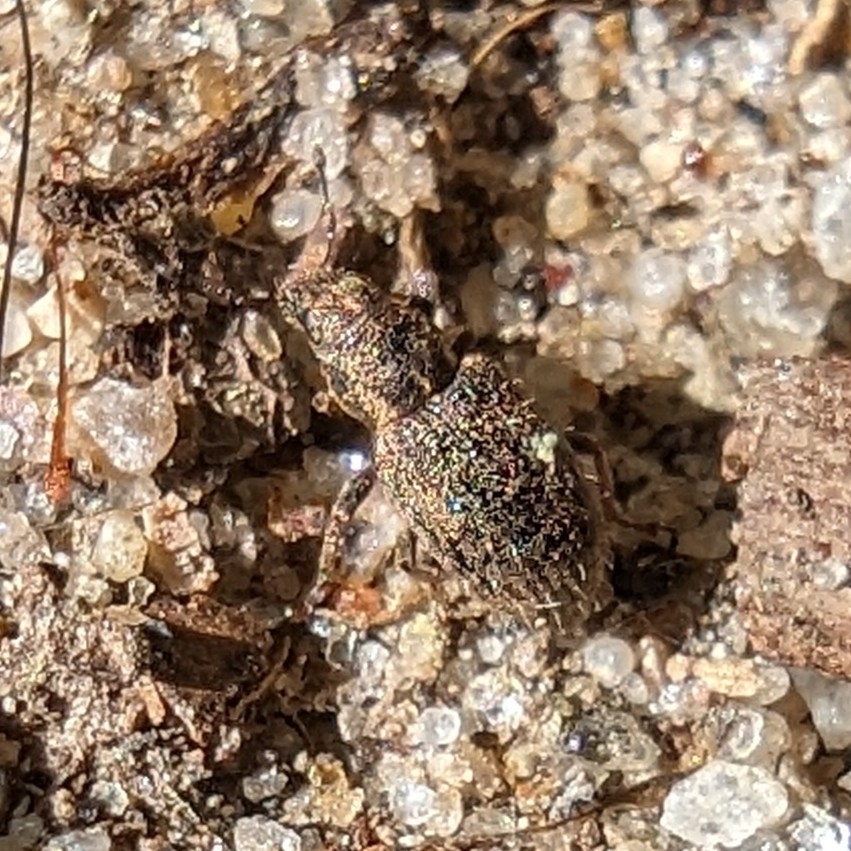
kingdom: Animalia
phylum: Arthropoda
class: Insecta
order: Coleoptera
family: Curculionidae
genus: Sitona
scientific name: Sitona hispidulus
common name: Clover weevil
